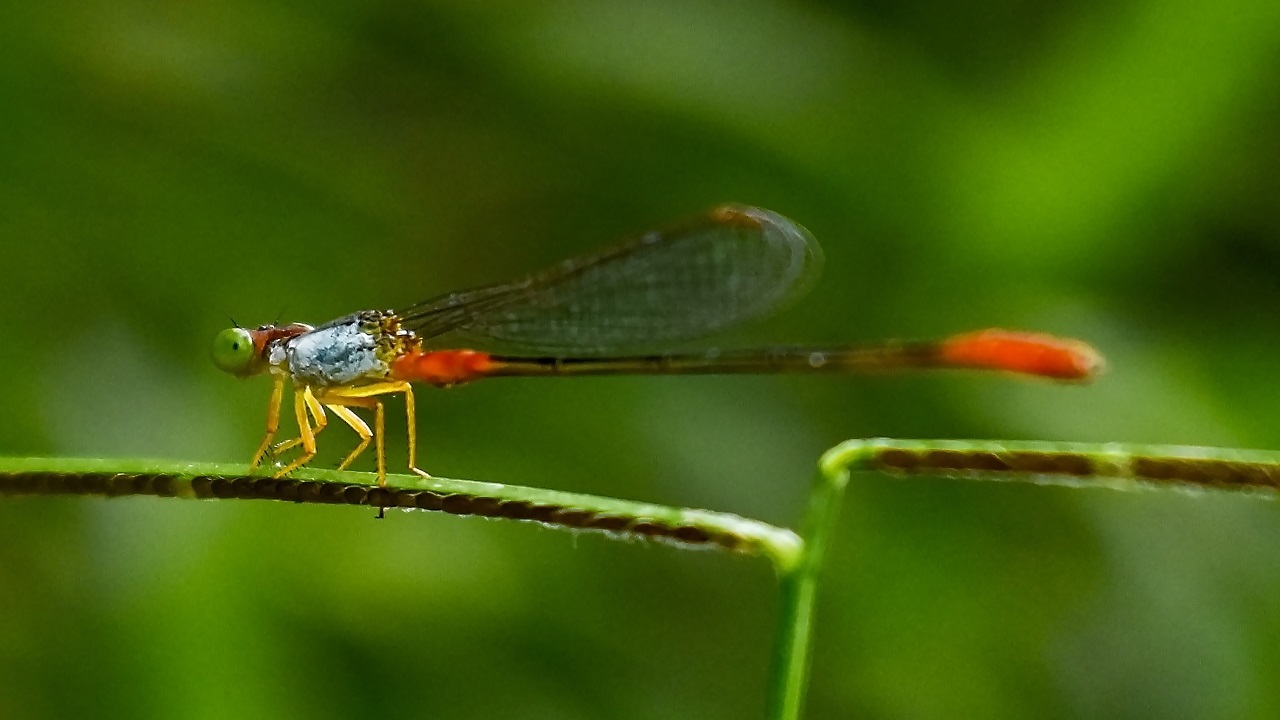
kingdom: Animalia
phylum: Arthropoda
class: Insecta
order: Odonata
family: Coenagrionidae
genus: Ceriagrion
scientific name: Ceriagrion cerinorubellum
